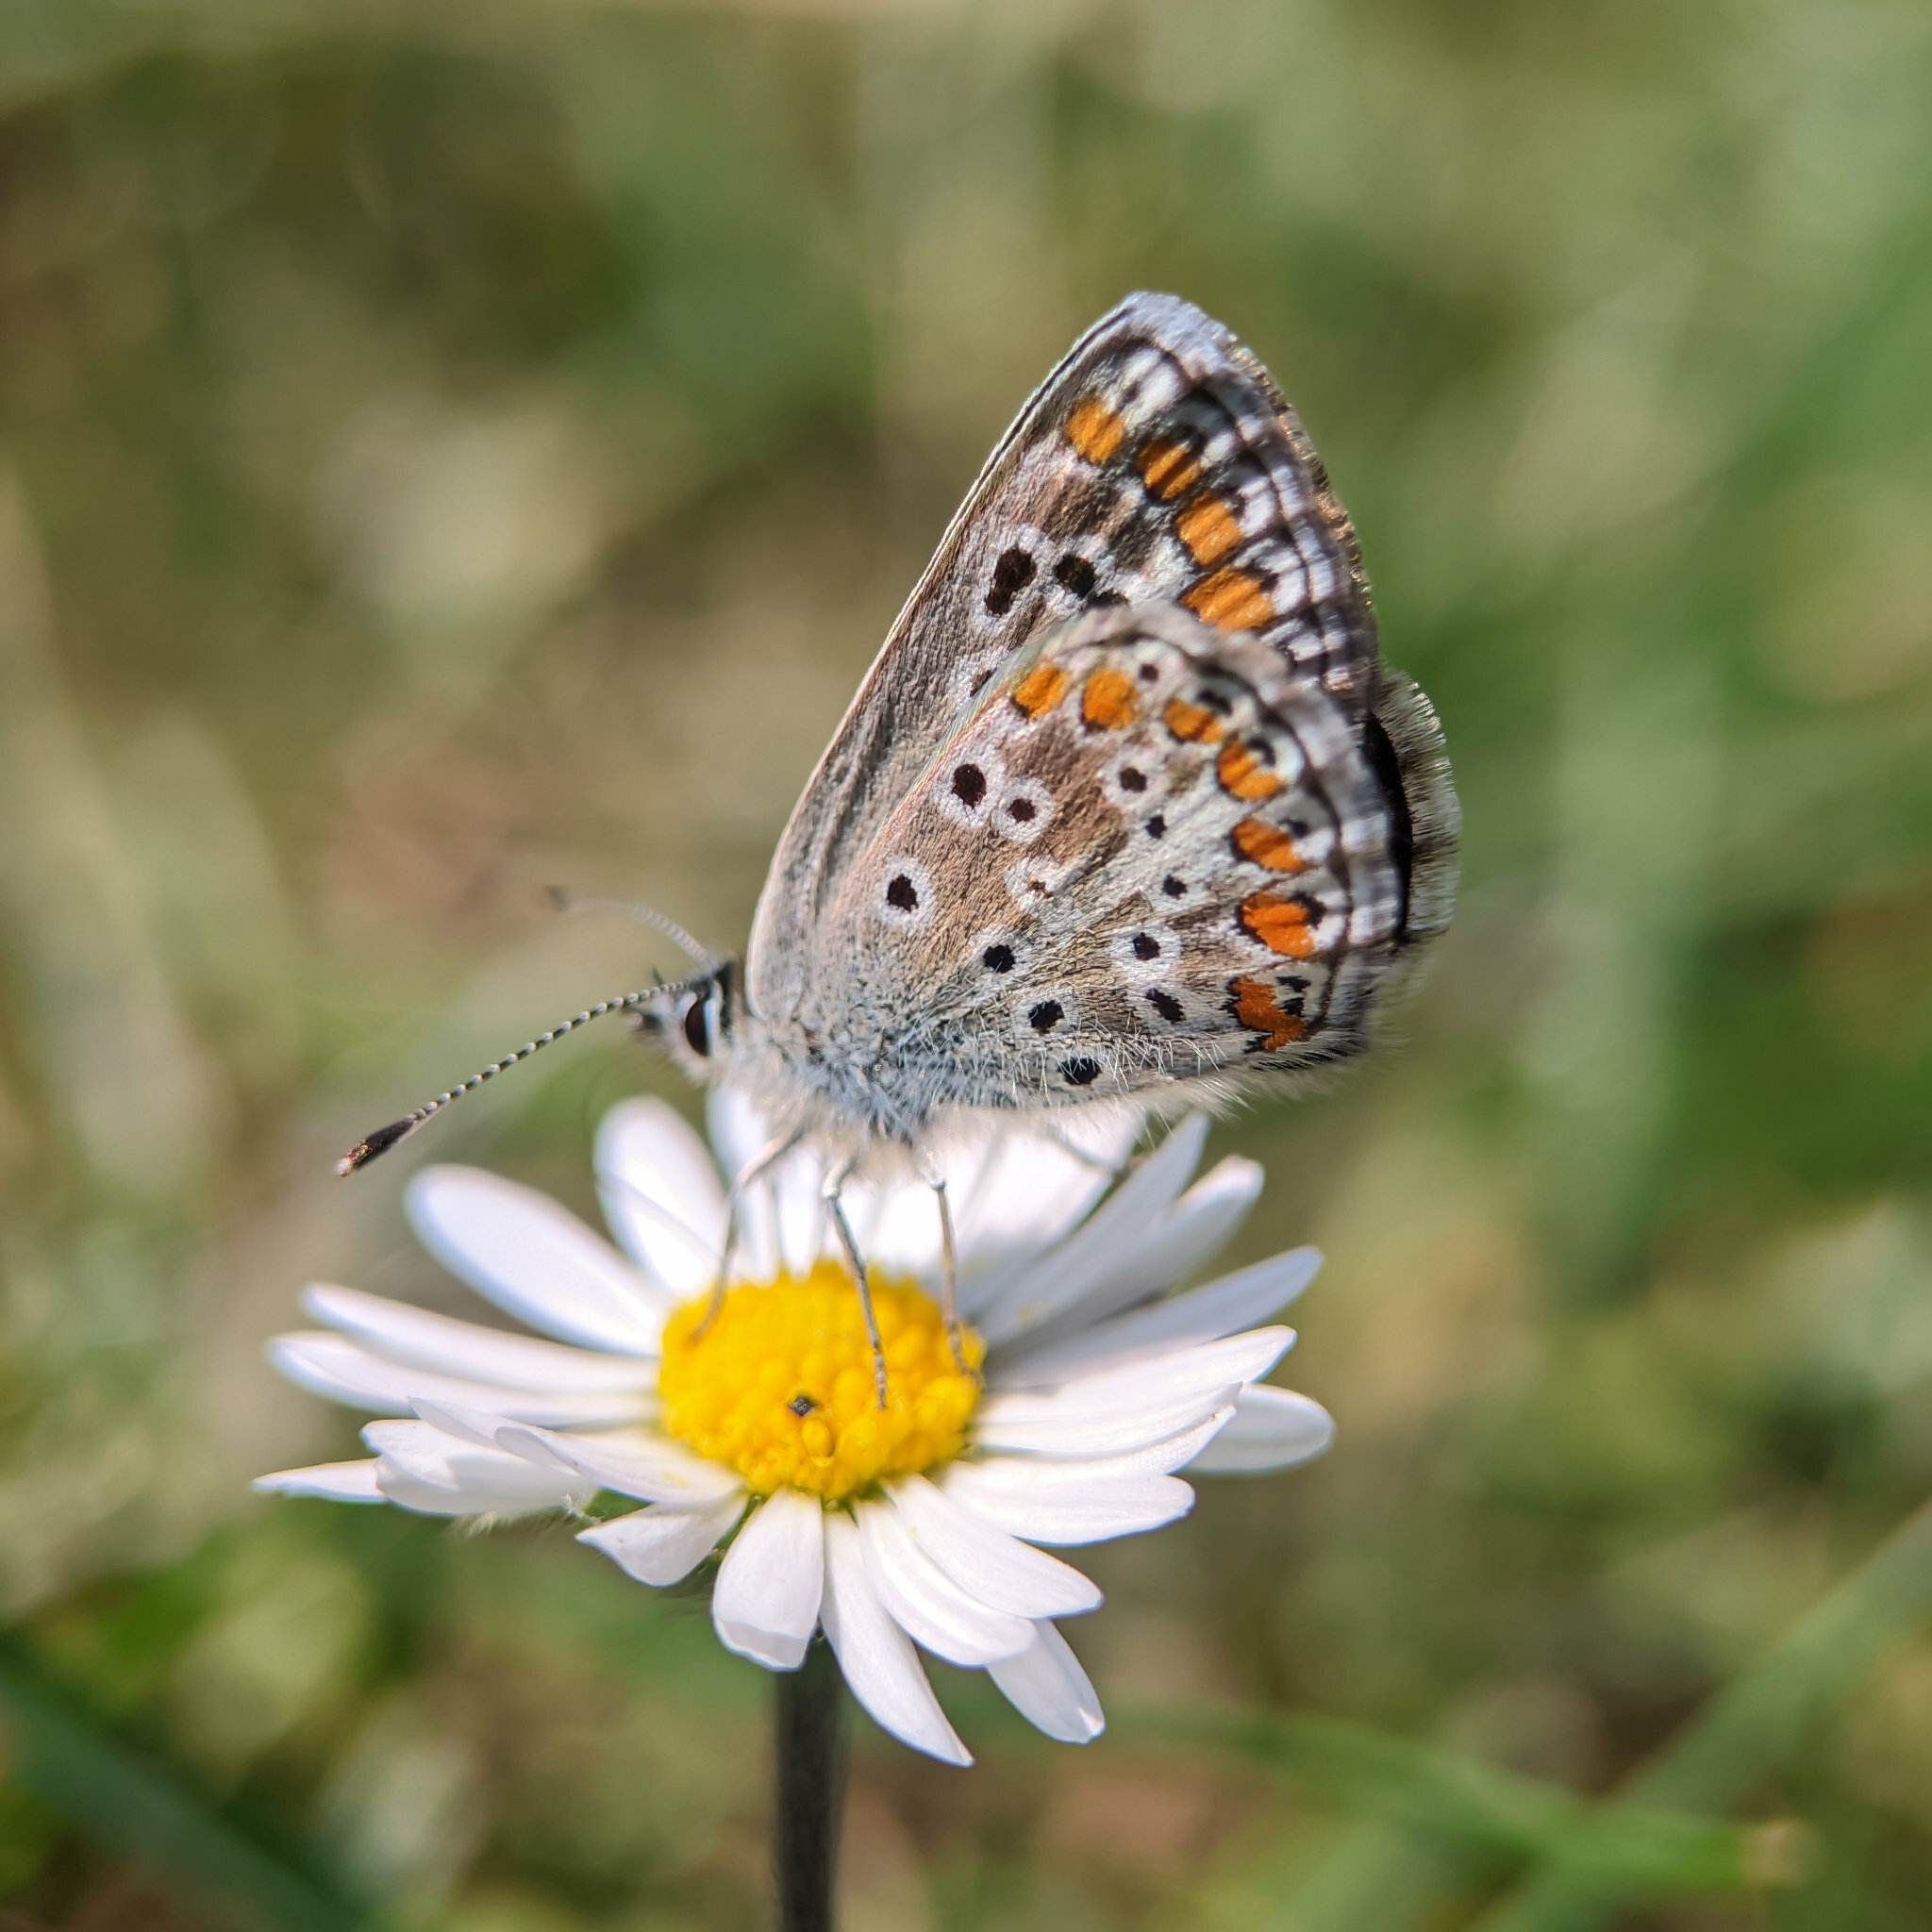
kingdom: Animalia
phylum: Arthropoda
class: Insecta
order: Lepidoptera
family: Lycaenidae
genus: Aricia
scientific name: Aricia agestis
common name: Brown argus
